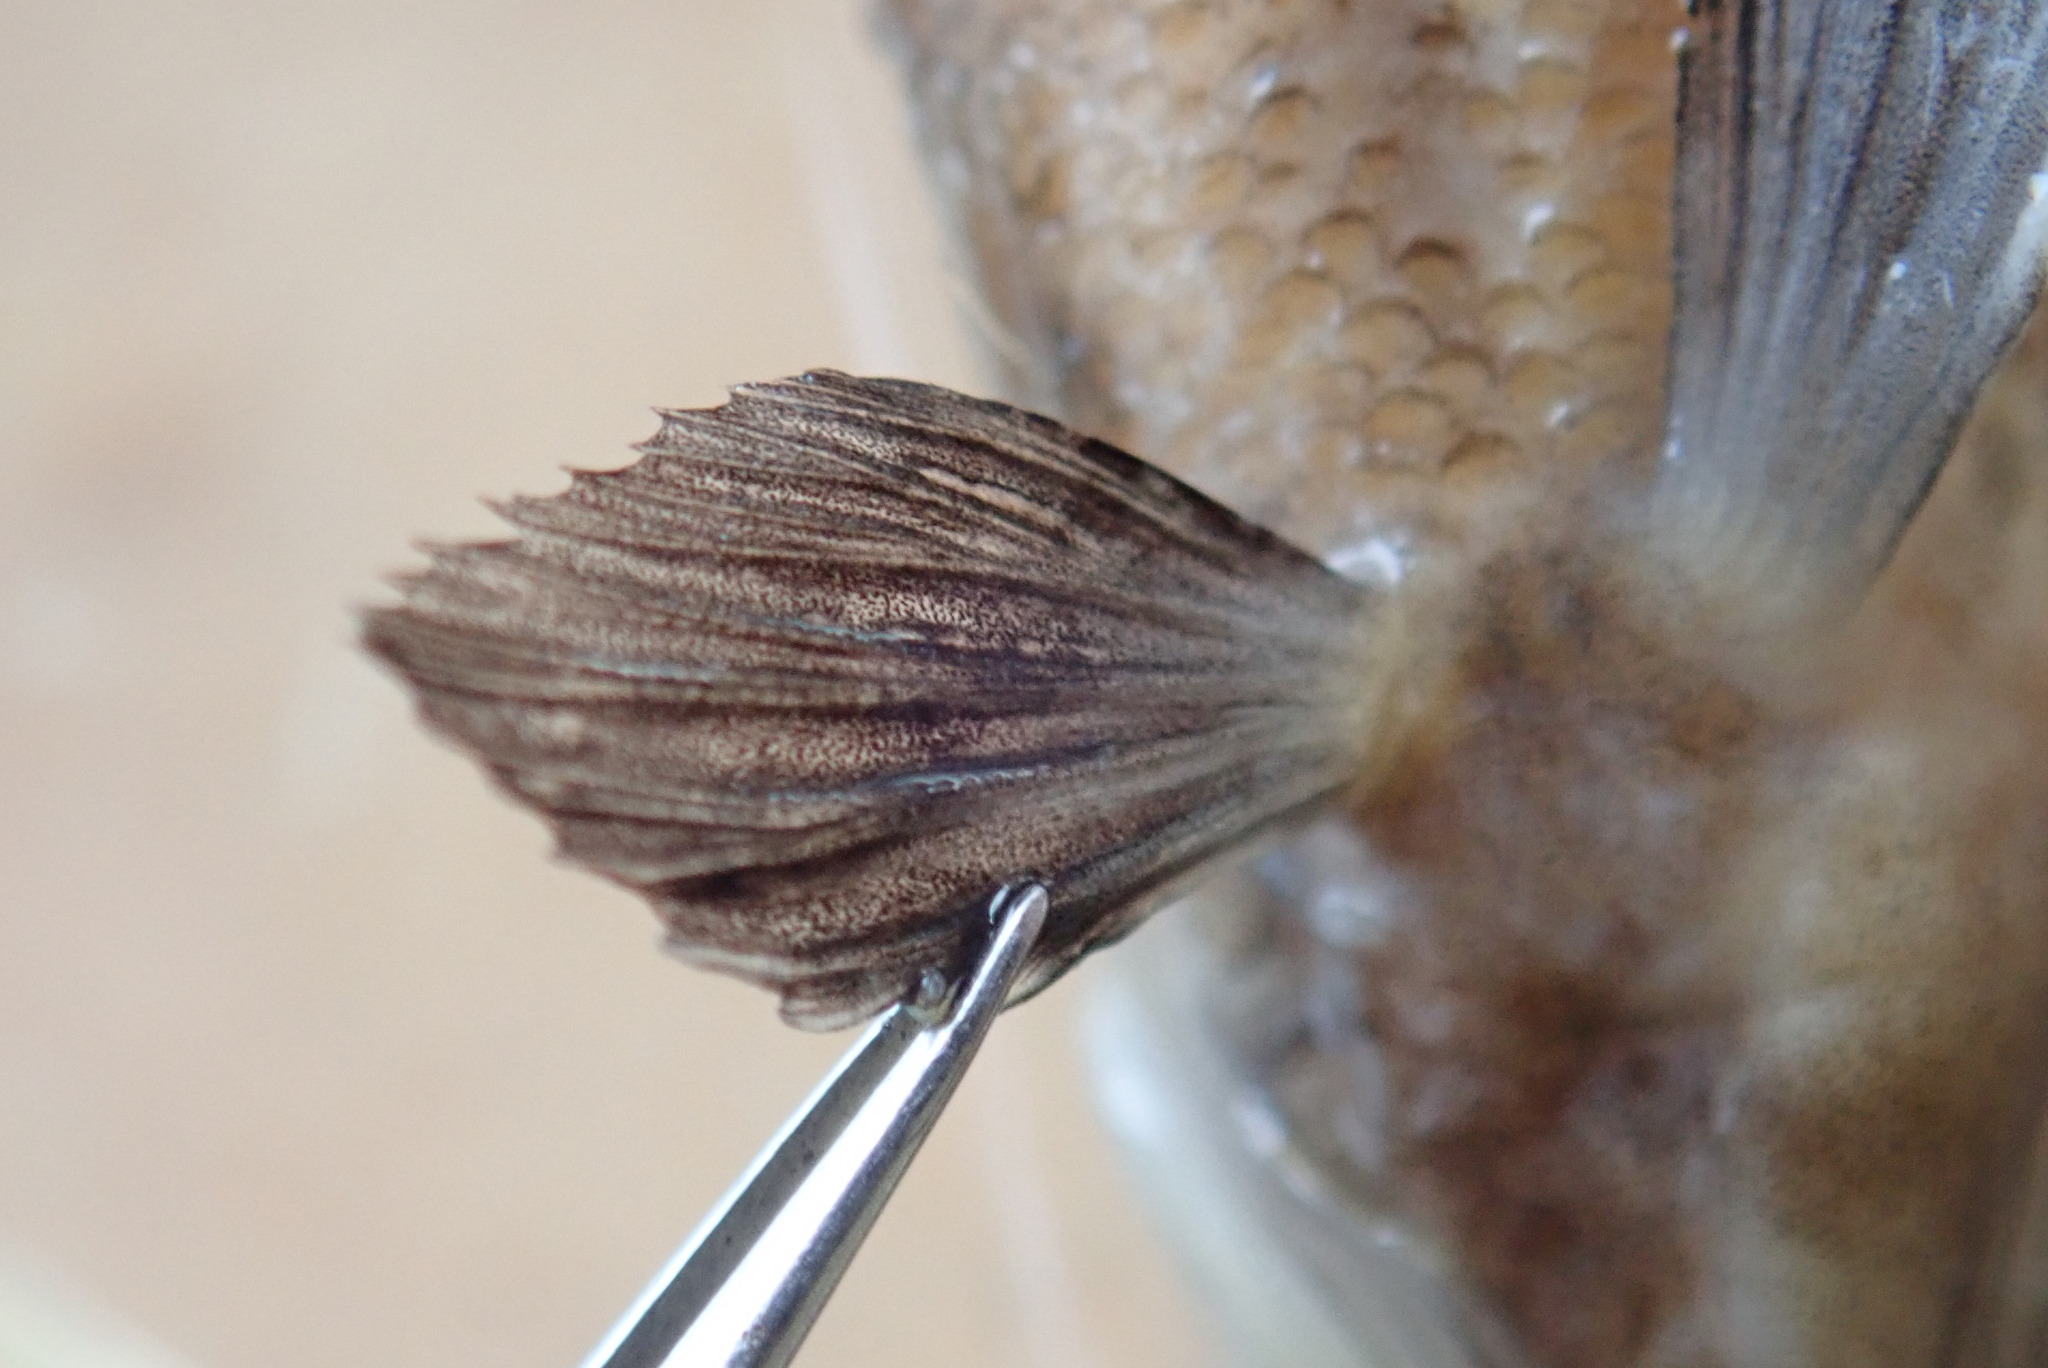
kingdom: Animalia
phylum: Chordata
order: Perciformes
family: Percidae
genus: Etheostoma
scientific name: Etheostoma nigrum
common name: Johnny darter
